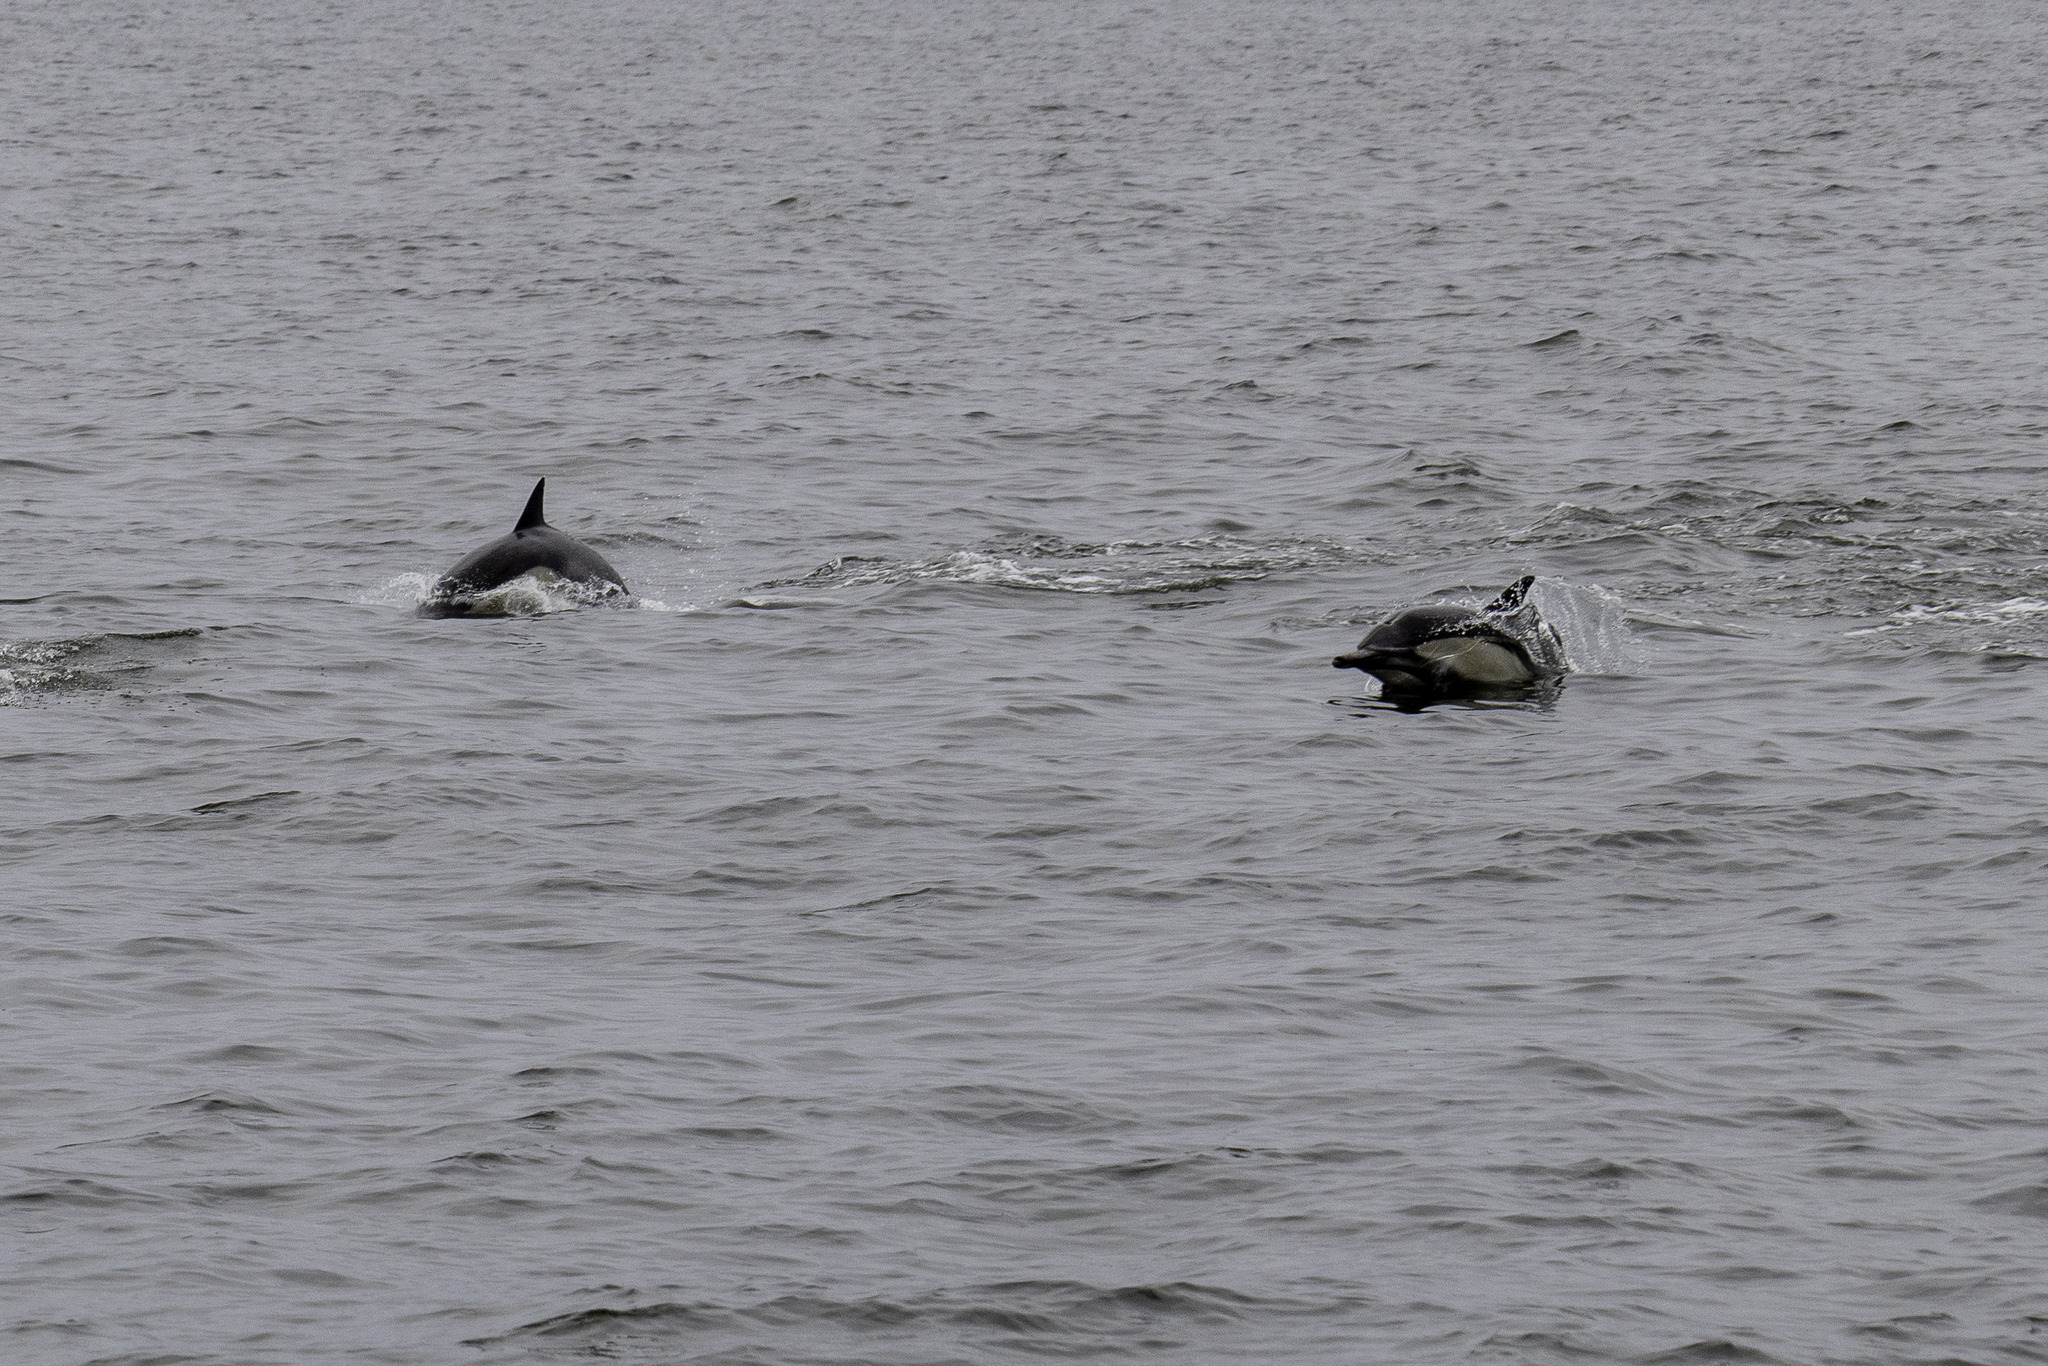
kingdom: Animalia
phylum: Chordata
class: Mammalia
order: Cetacea
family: Delphinidae
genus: Delphinus
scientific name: Delphinus delphis
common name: Common dolphin
